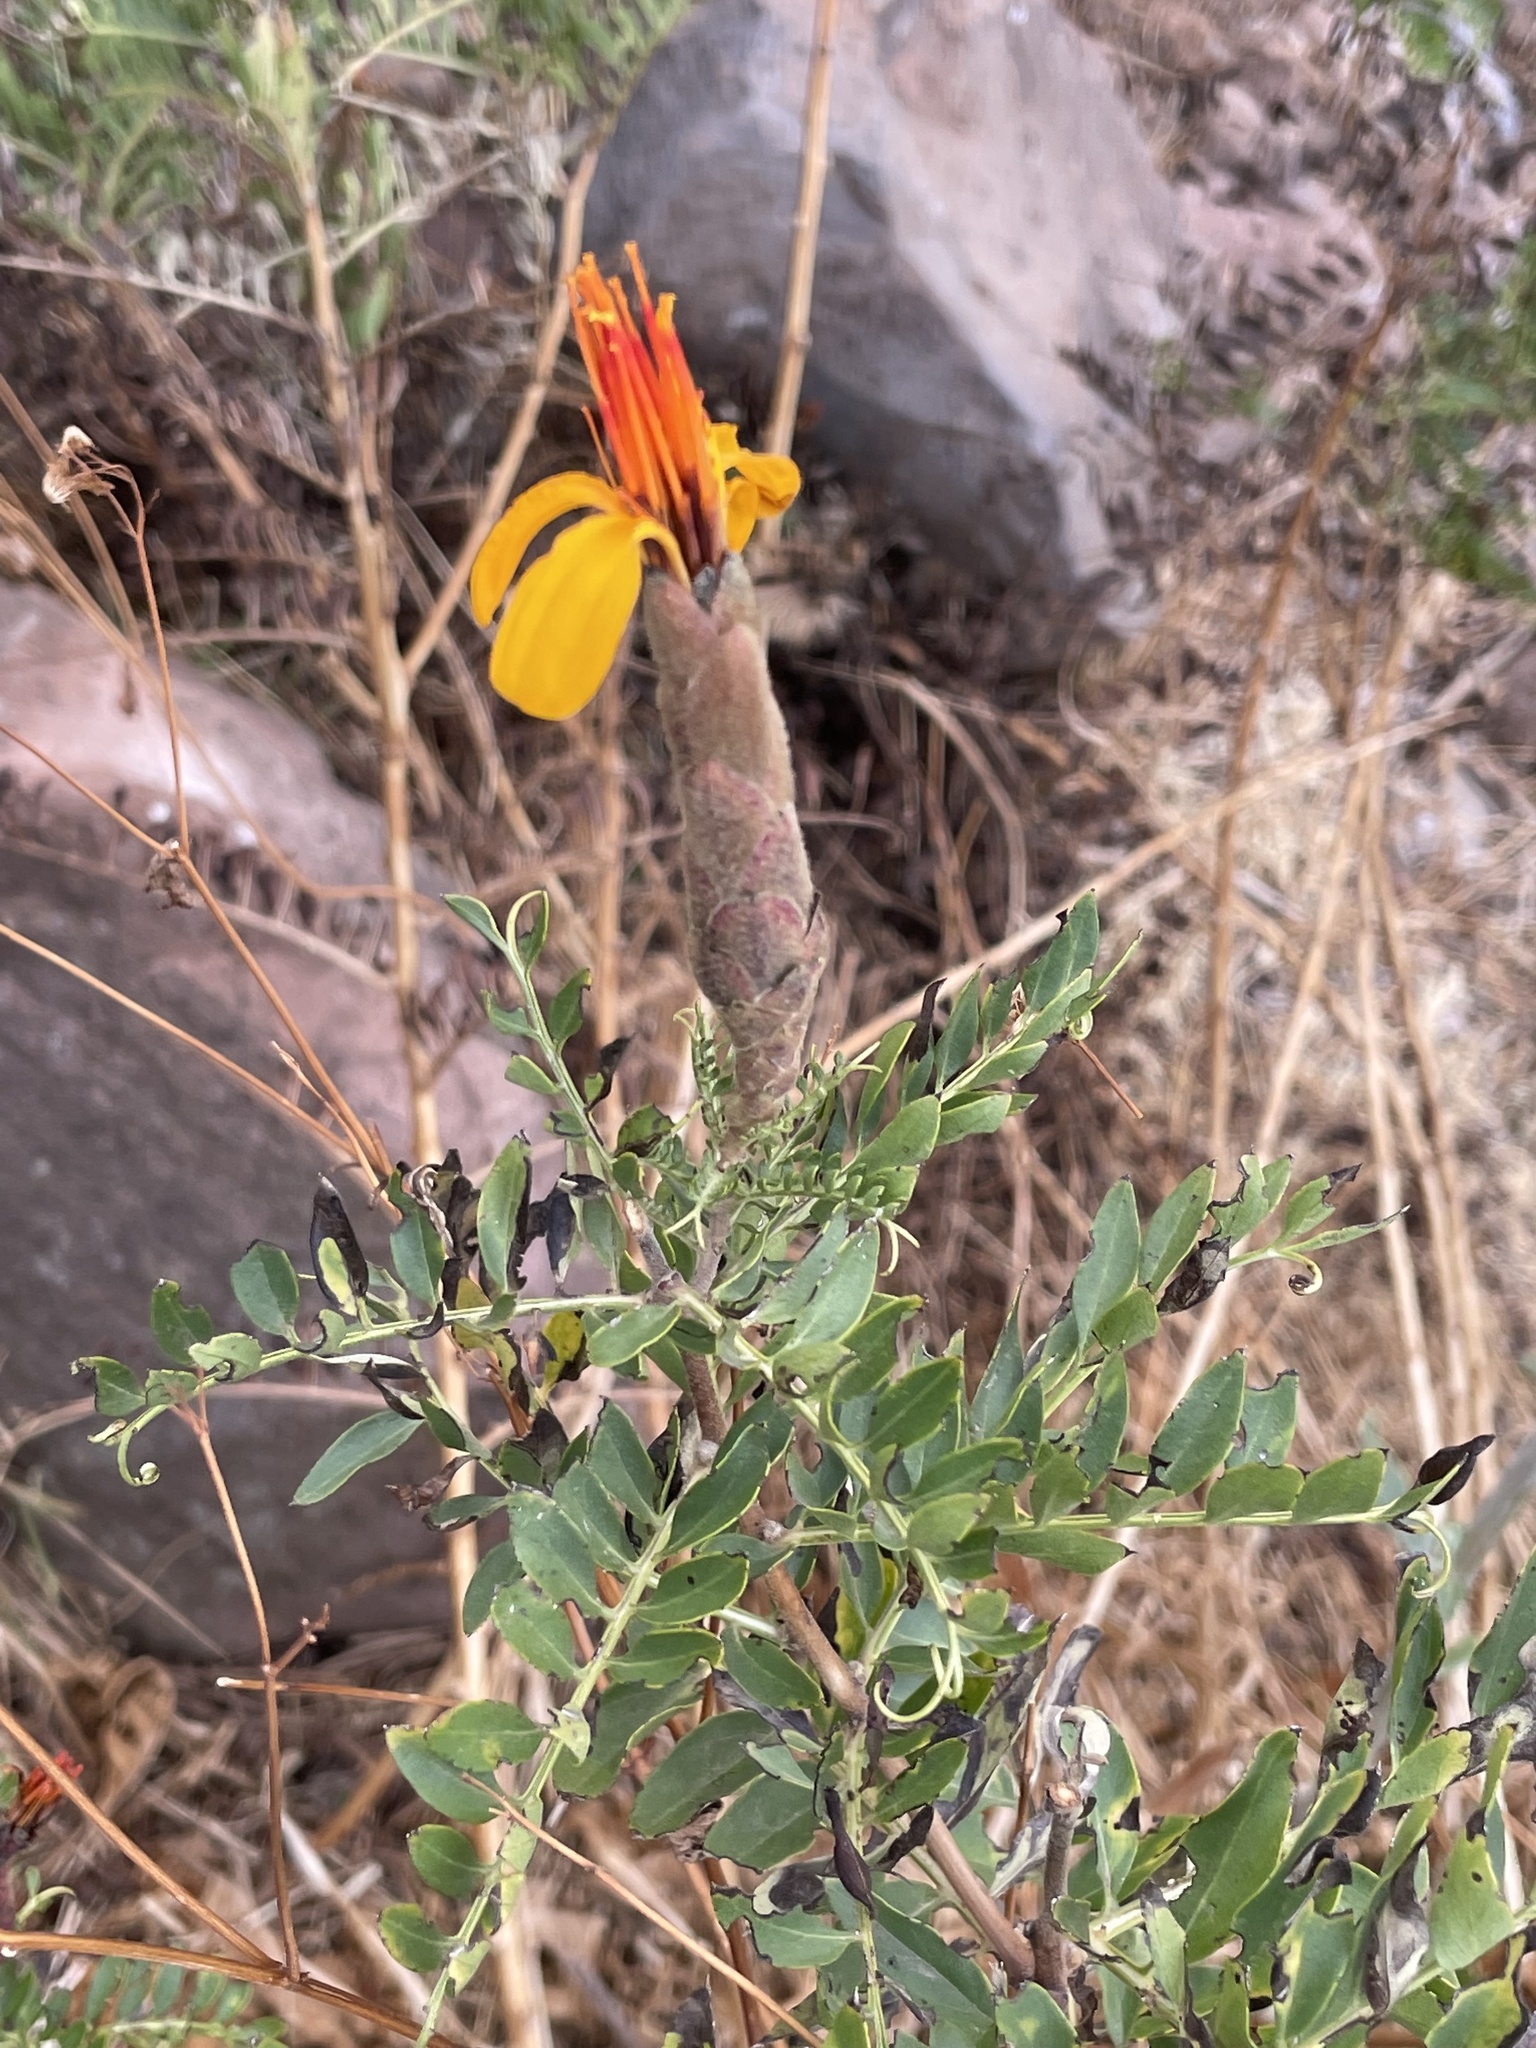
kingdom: Plantae
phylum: Tracheophyta
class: Magnoliopsida
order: Asterales
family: Asteraceae
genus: Mutisia
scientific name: Mutisia acuminata
